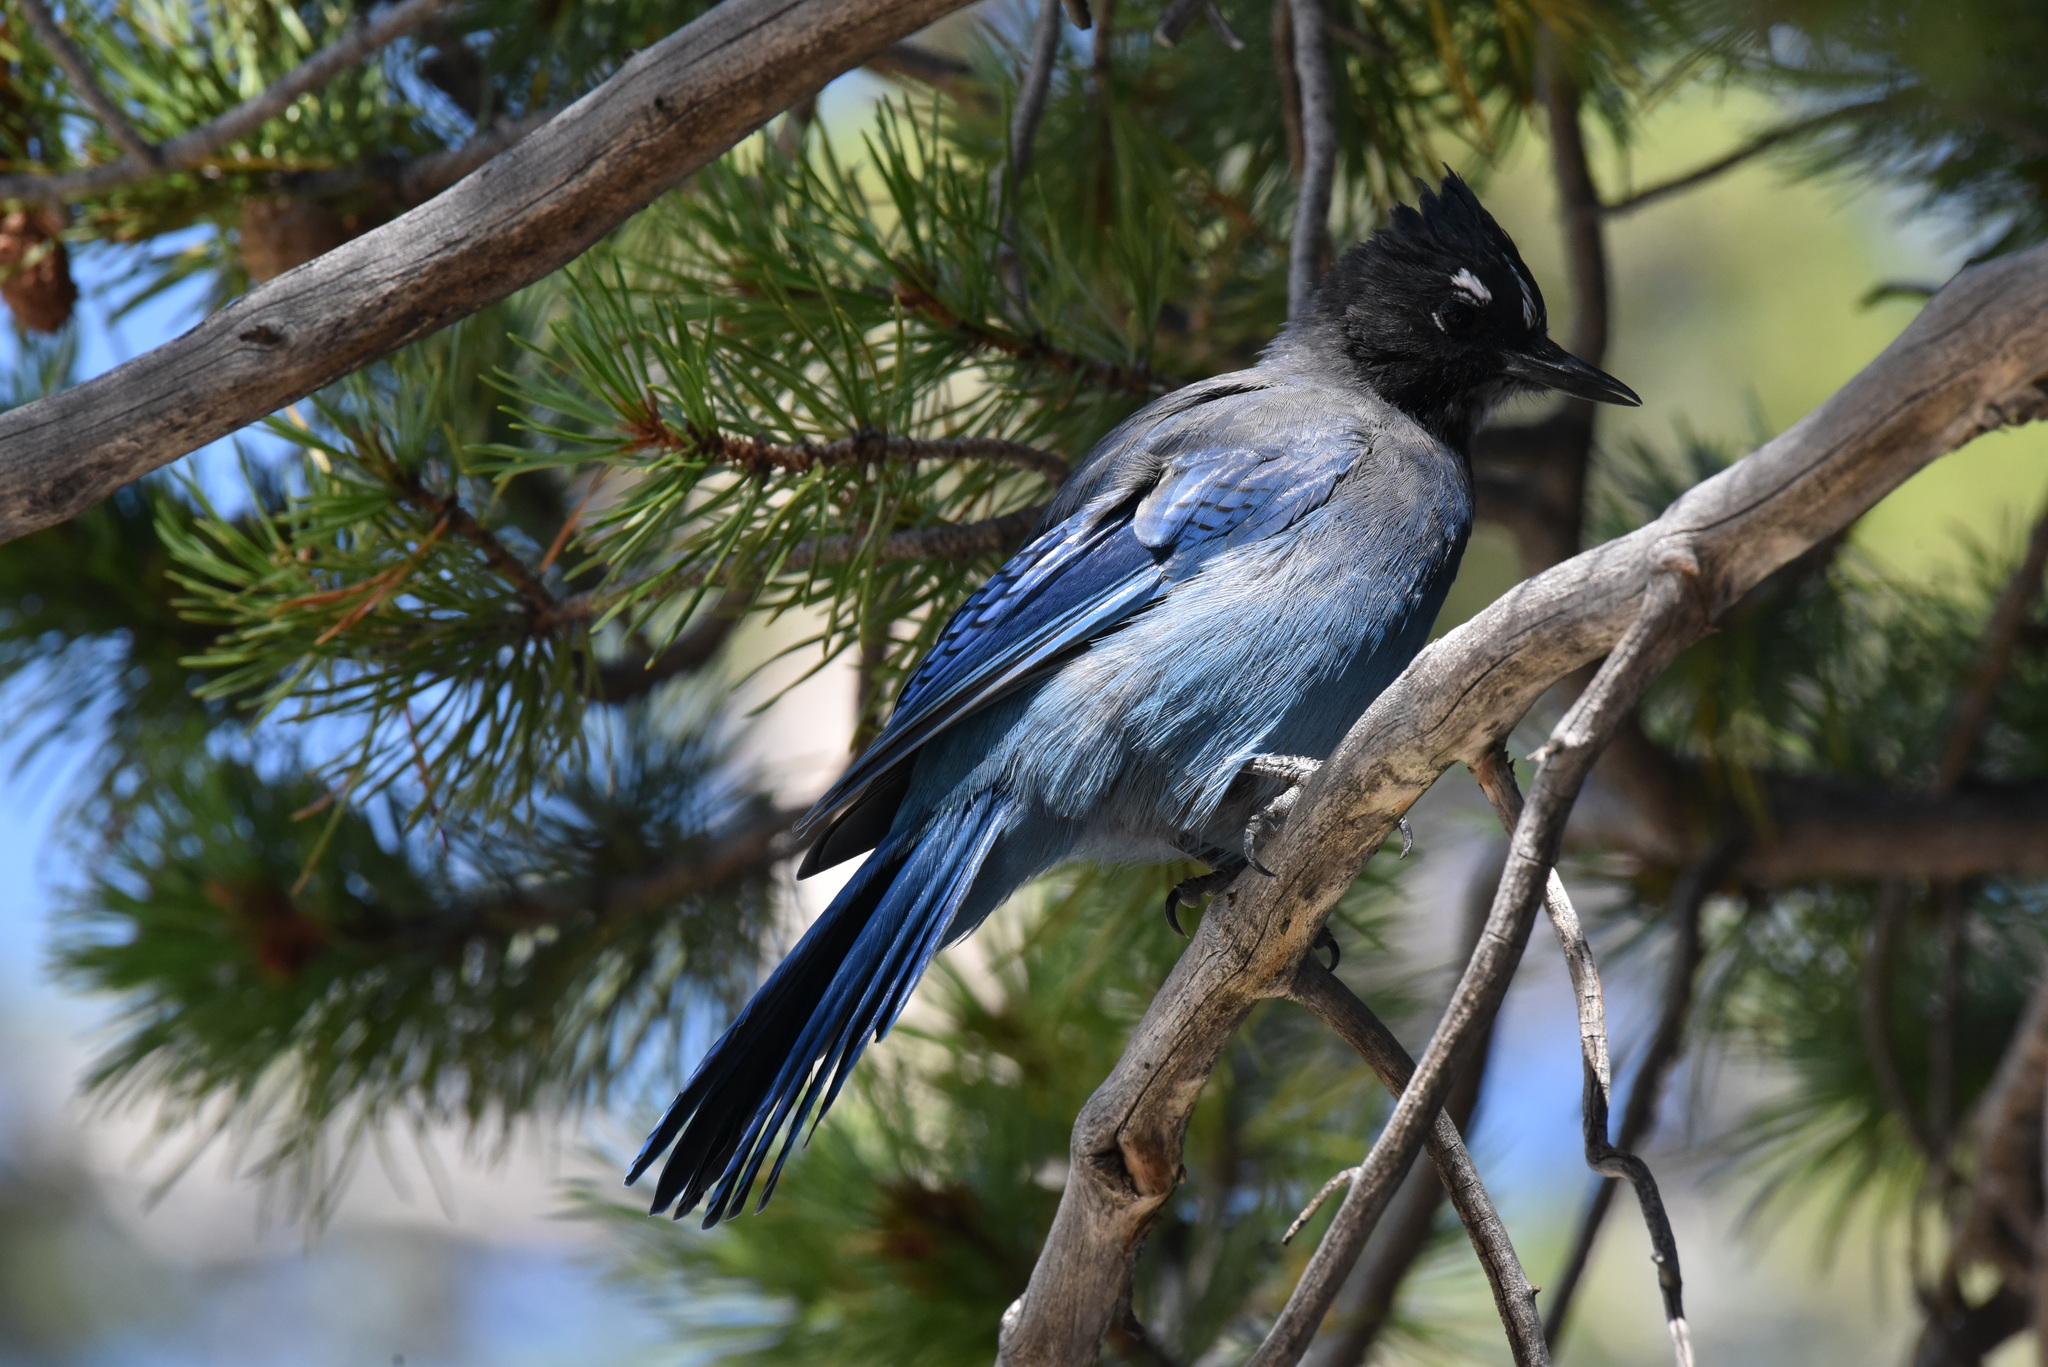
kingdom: Animalia
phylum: Chordata
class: Aves
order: Passeriformes
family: Corvidae
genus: Cyanocitta
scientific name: Cyanocitta stelleri
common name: Steller's jay
